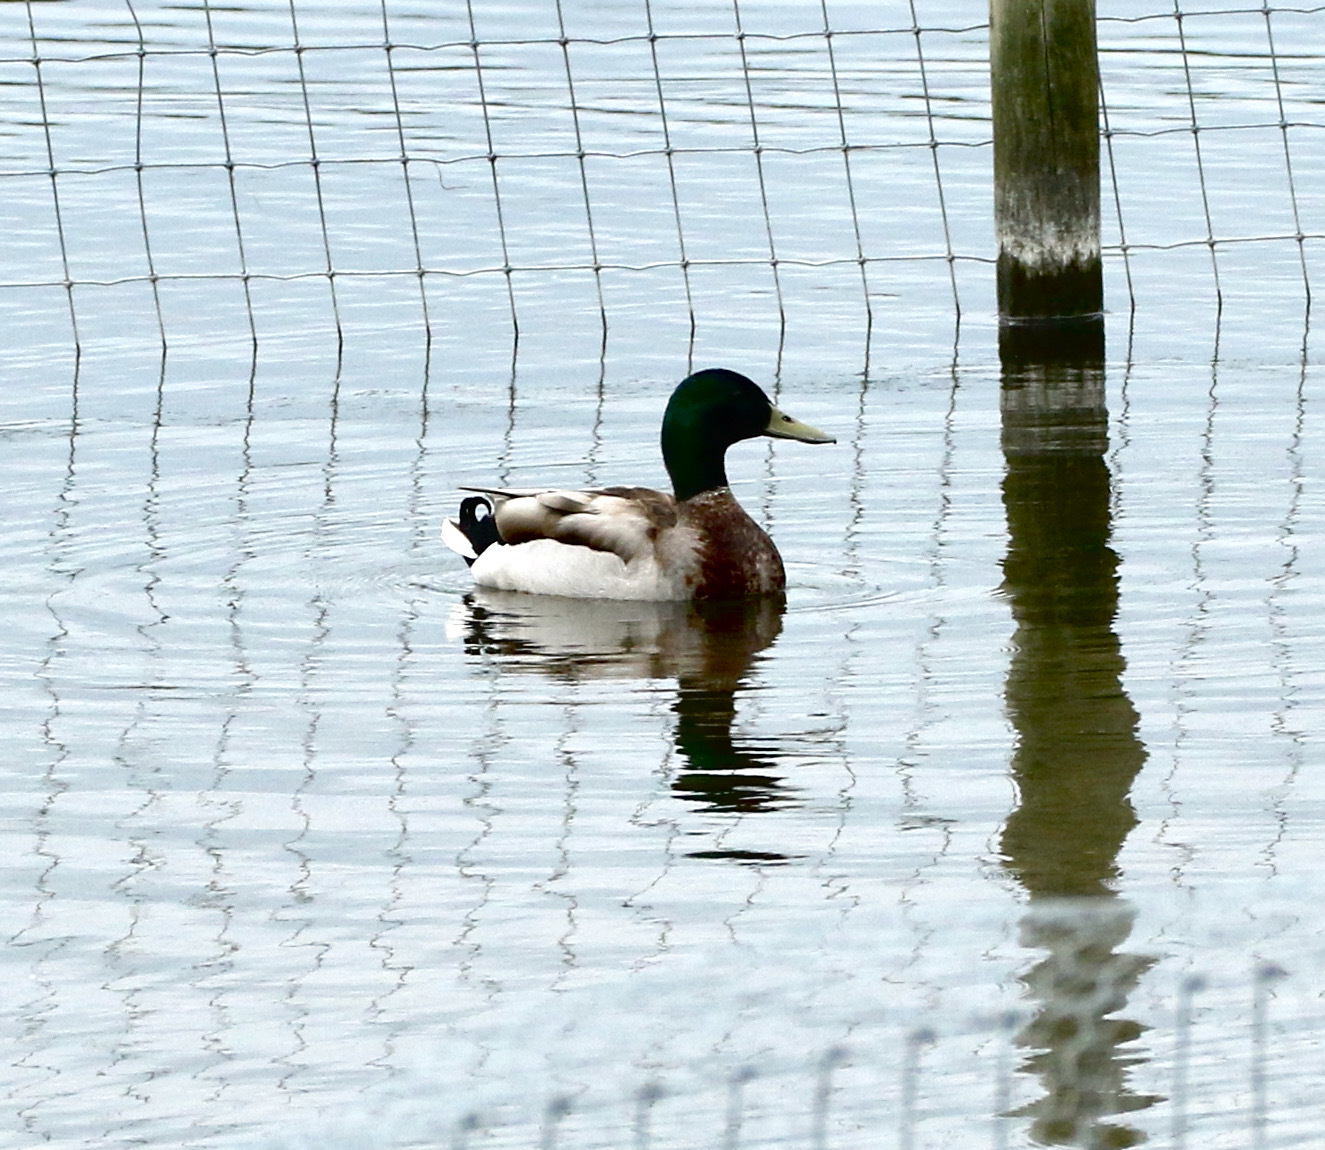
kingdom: Animalia
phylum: Chordata
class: Aves
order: Anseriformes
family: Anatidae
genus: Anas
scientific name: Anas platyrhynchos
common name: Mallard
